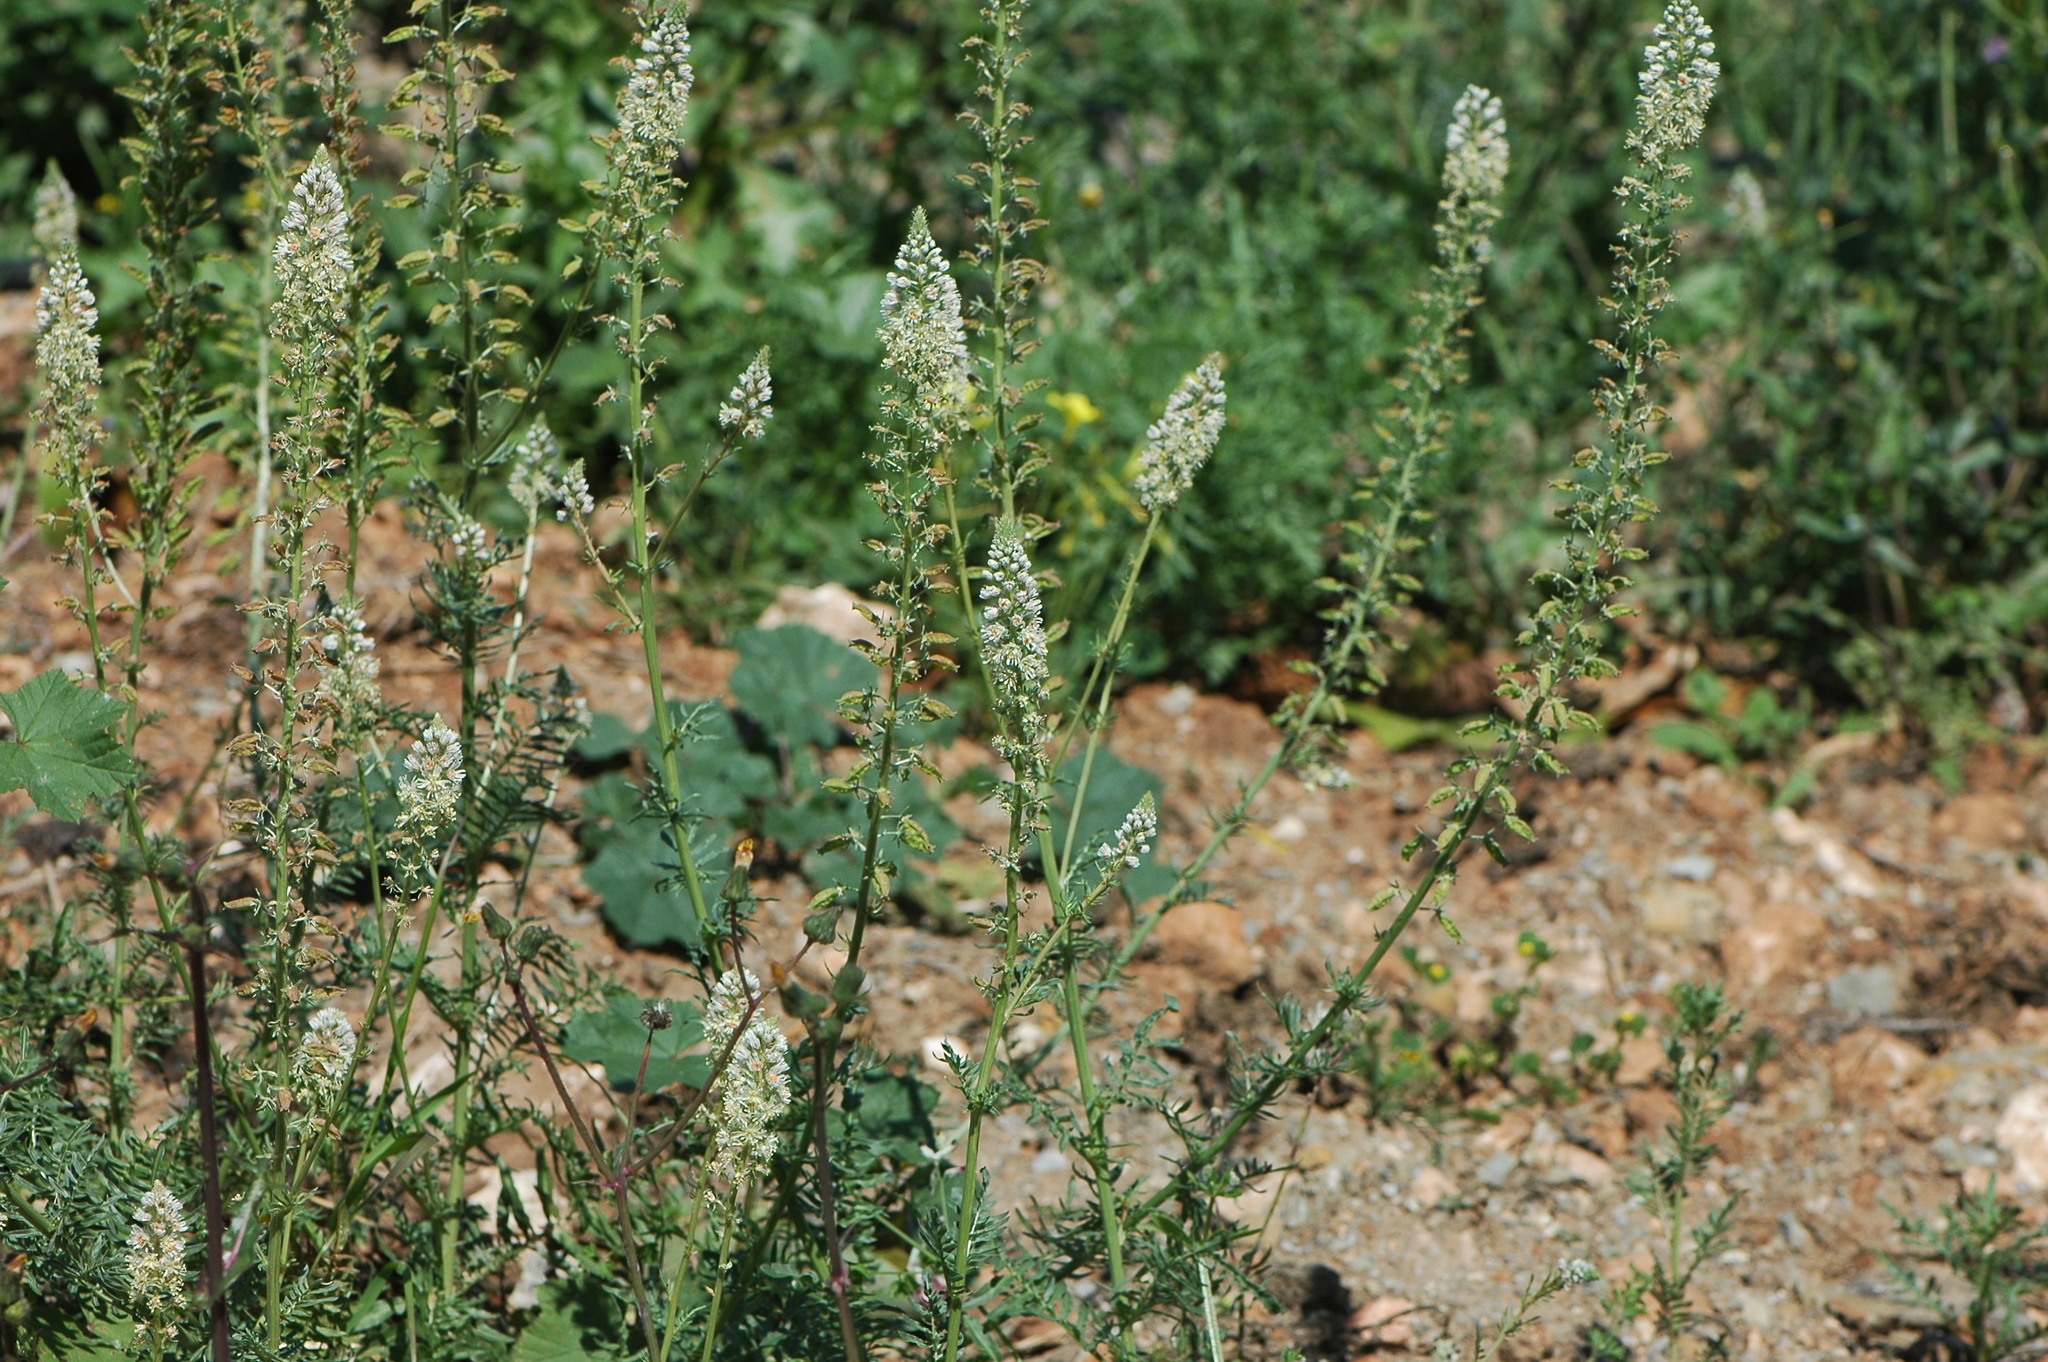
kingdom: Plantae
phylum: Tracheophyta
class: Magnoliopsida
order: Brassicales
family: Resedaceae
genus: Reseda
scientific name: Reseda alba
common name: White mignonette
